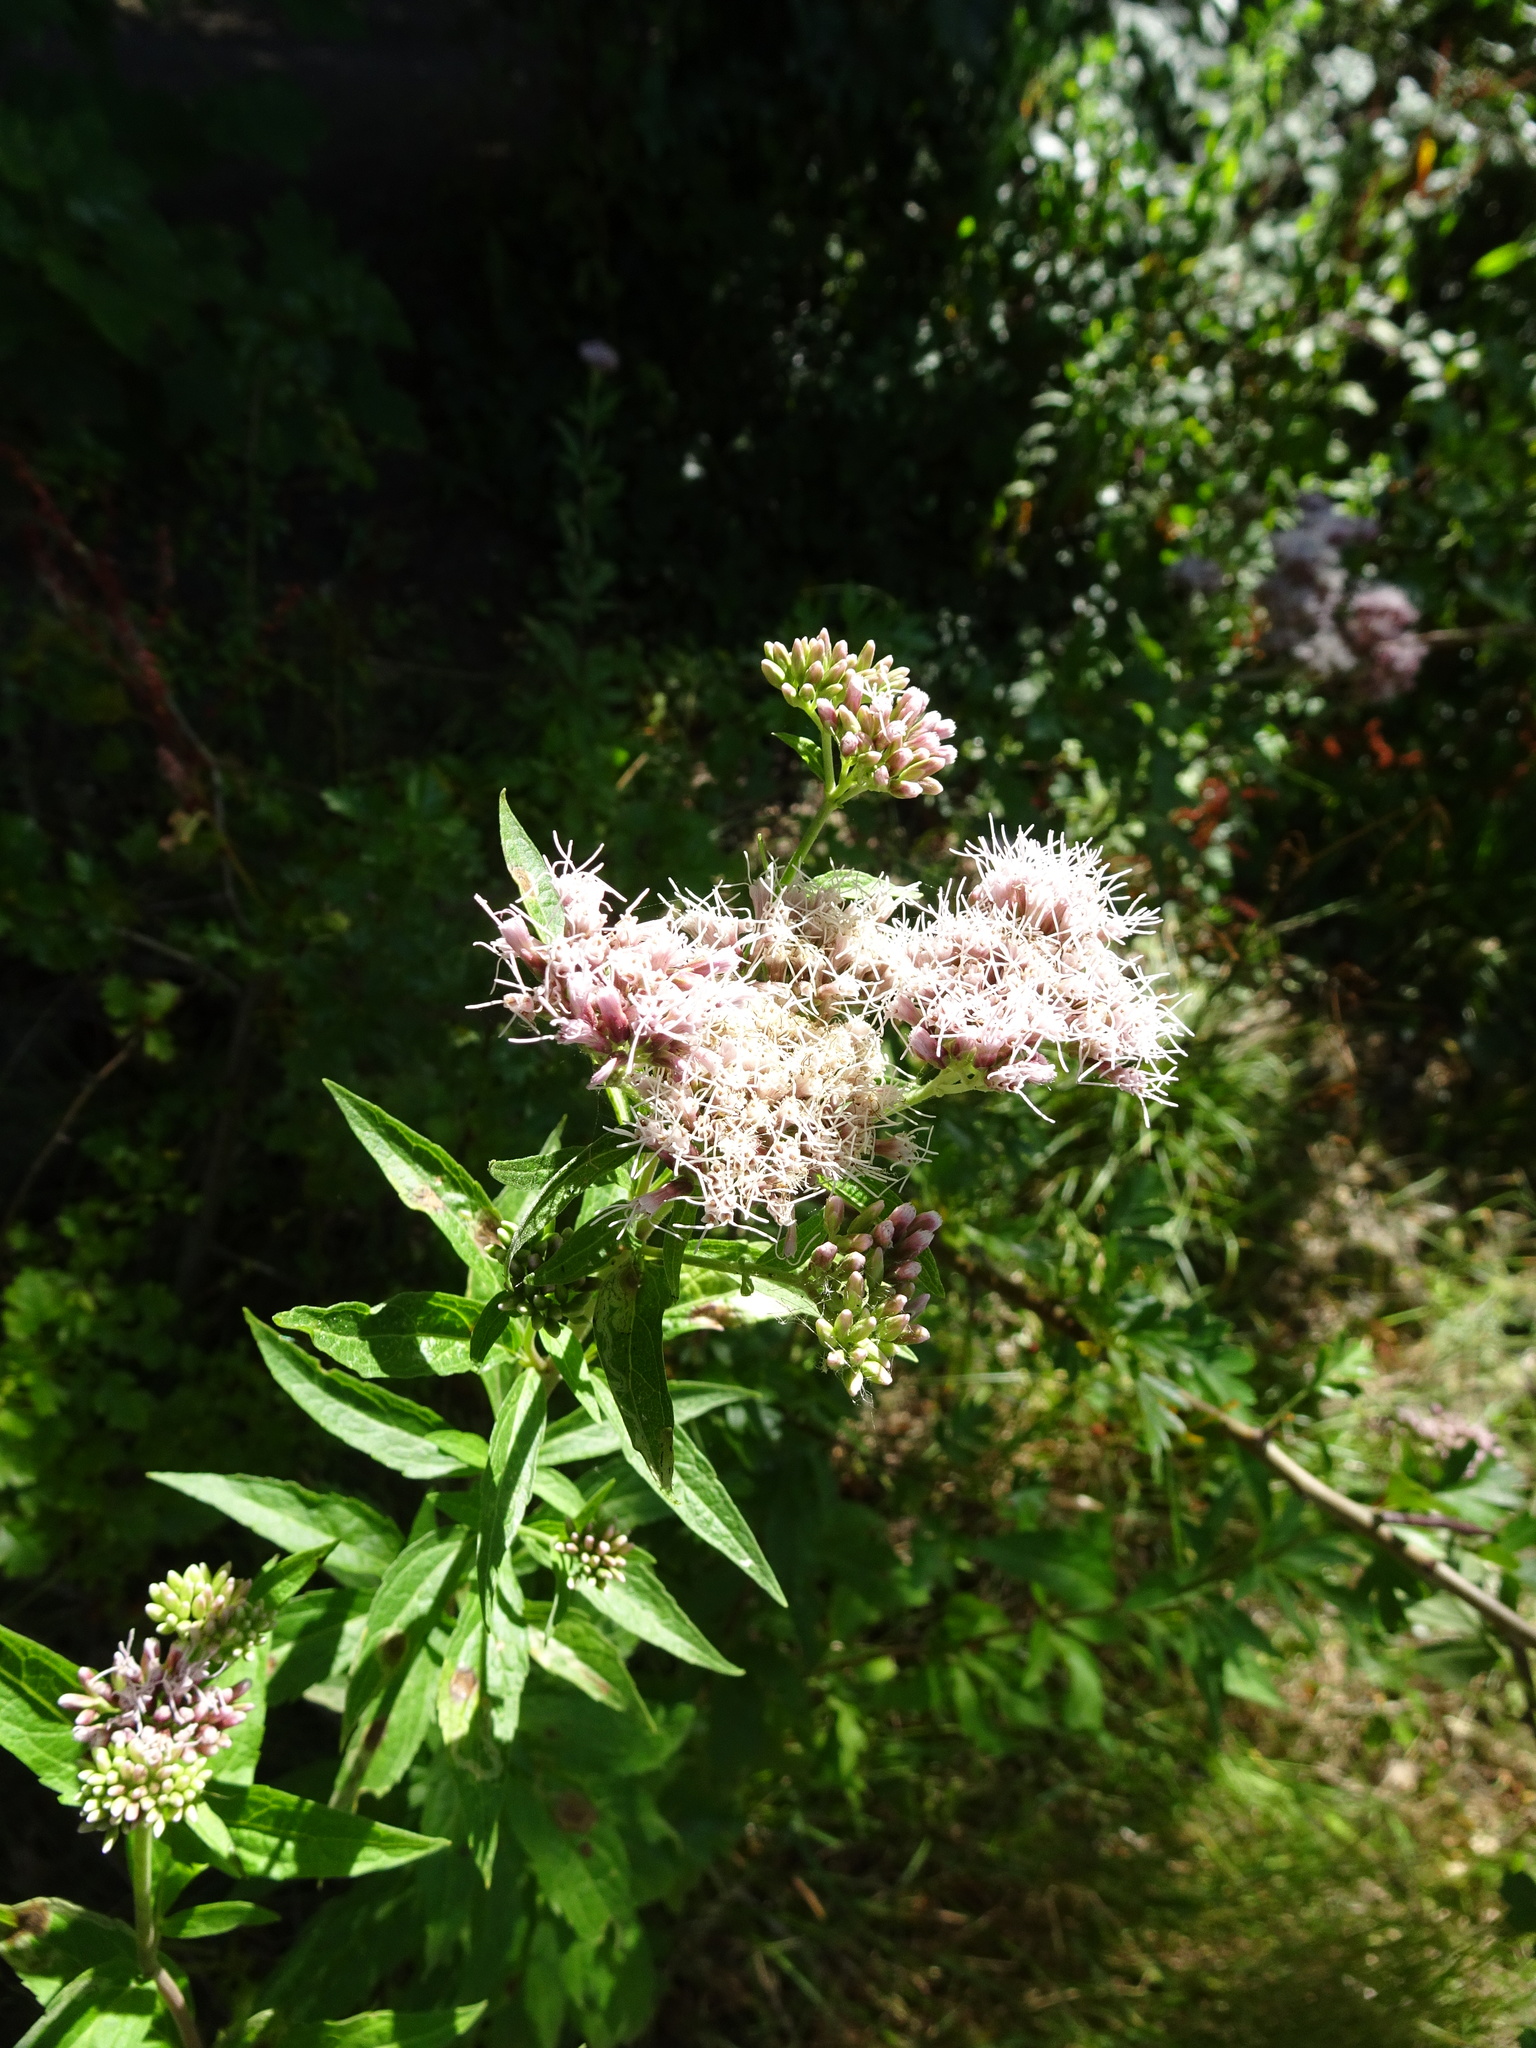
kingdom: Plantae
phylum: Tracheophyta
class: Magnoliopsida
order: Asterales
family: Asteraceae
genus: Eupatorium
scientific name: Eupatorium cannabinum
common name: Hemp-agrimony
